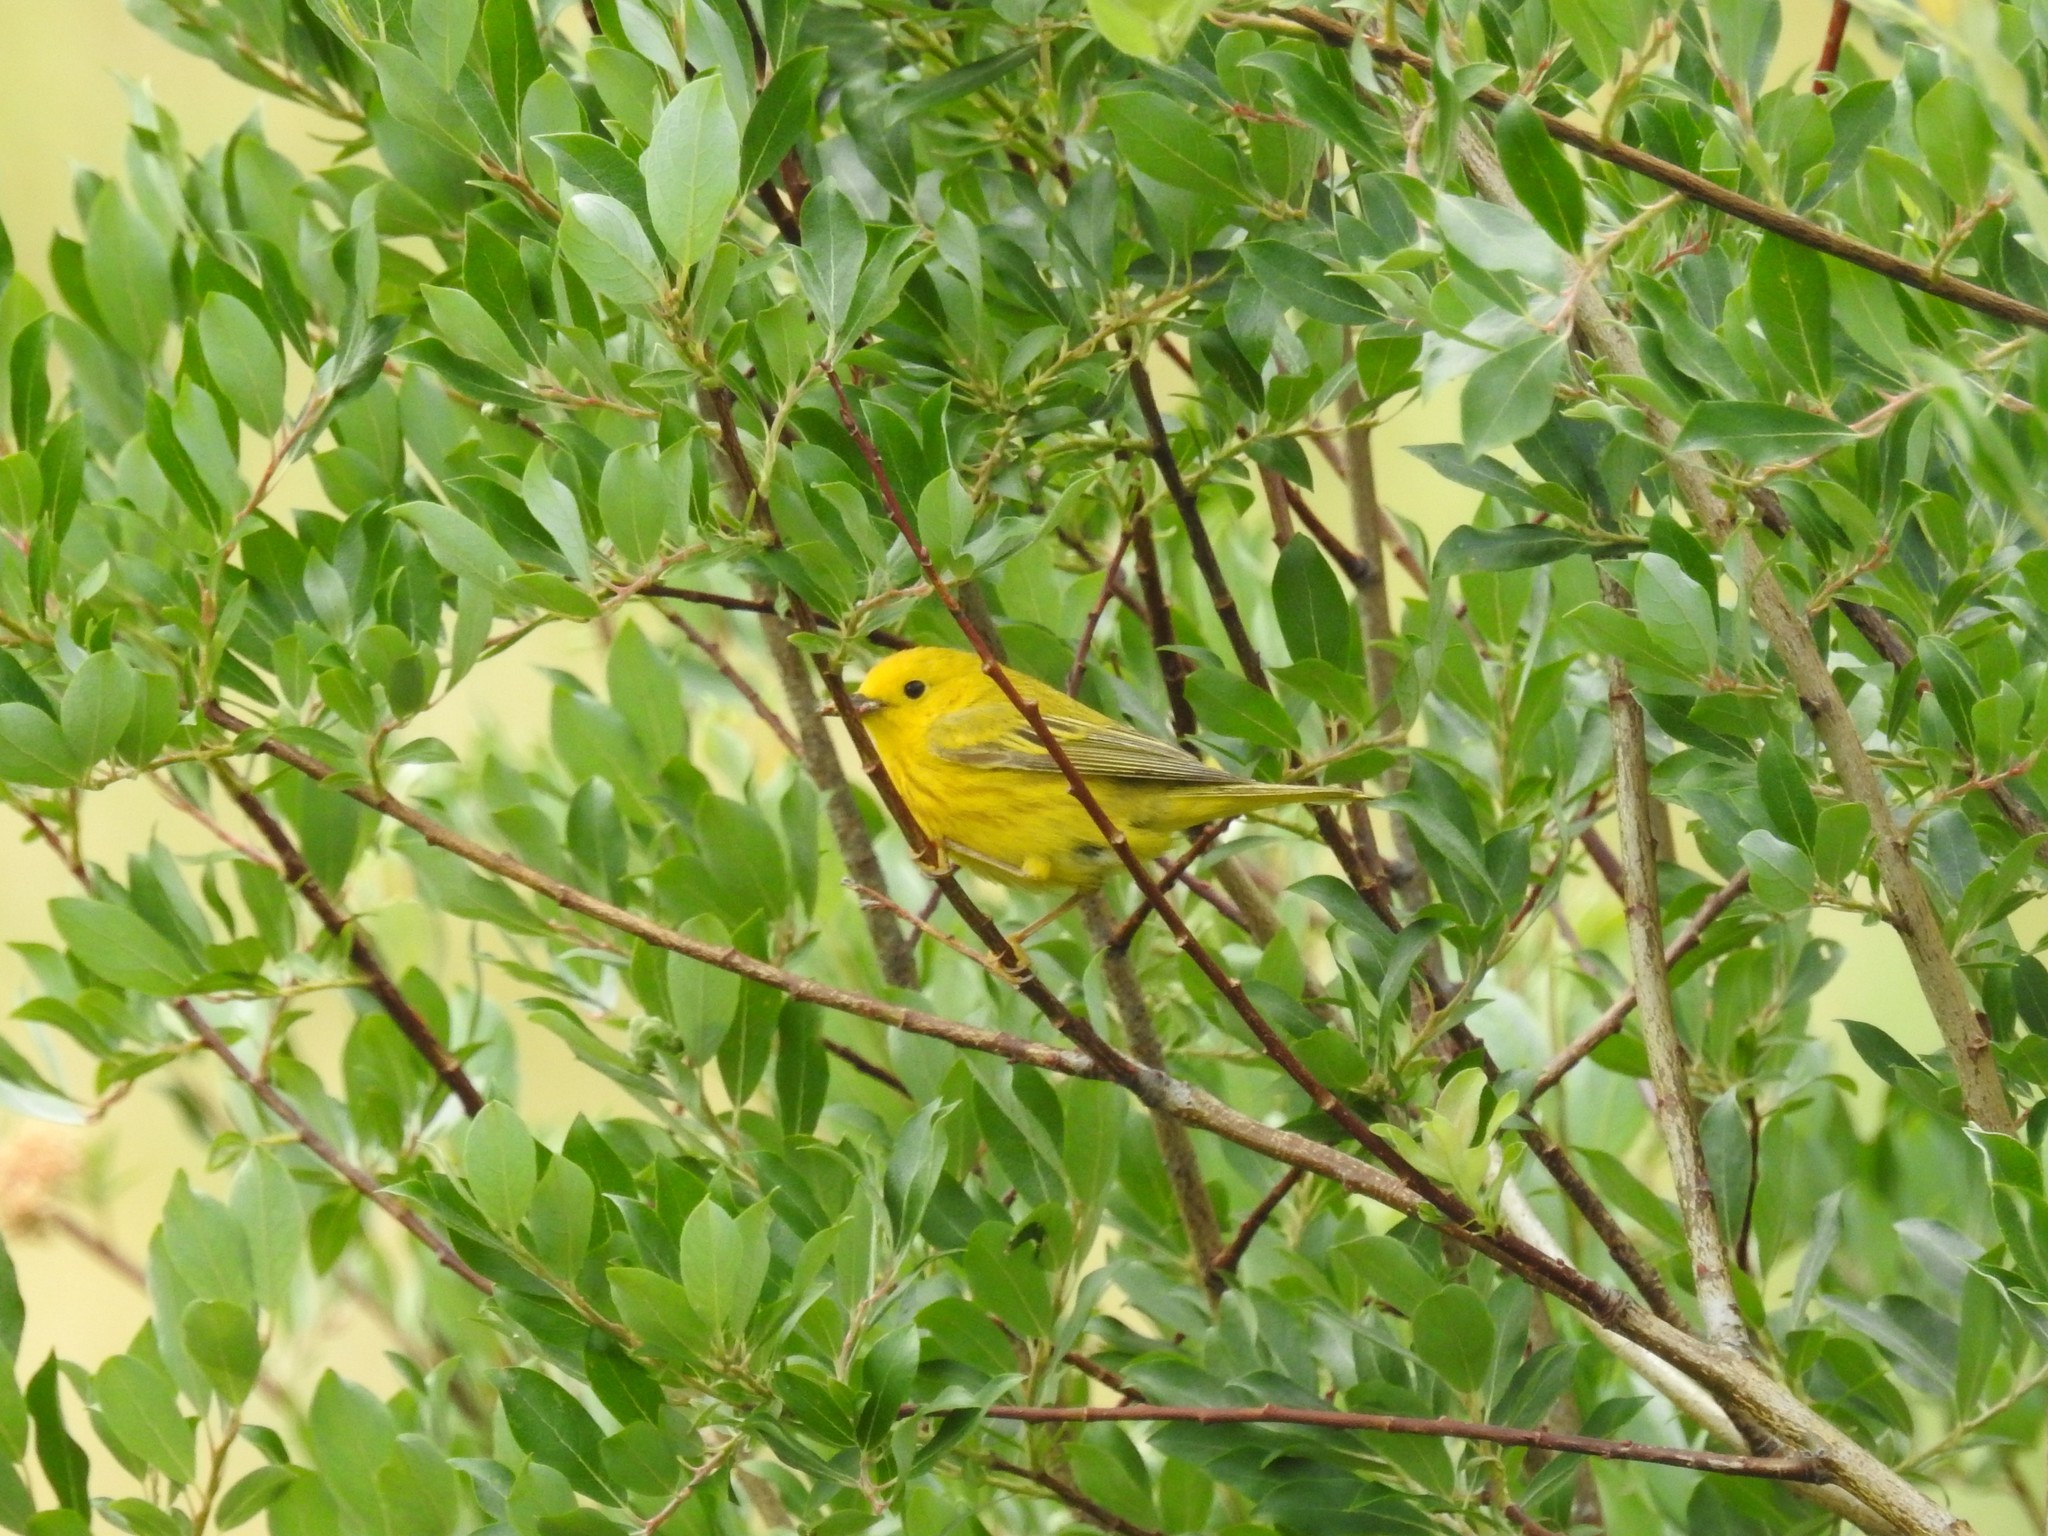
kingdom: Animalia
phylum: Chordata
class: Aves
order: Passeriformes
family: Parulidae
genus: Setophaga
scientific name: Setophaga petechia
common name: Yellow warbler
